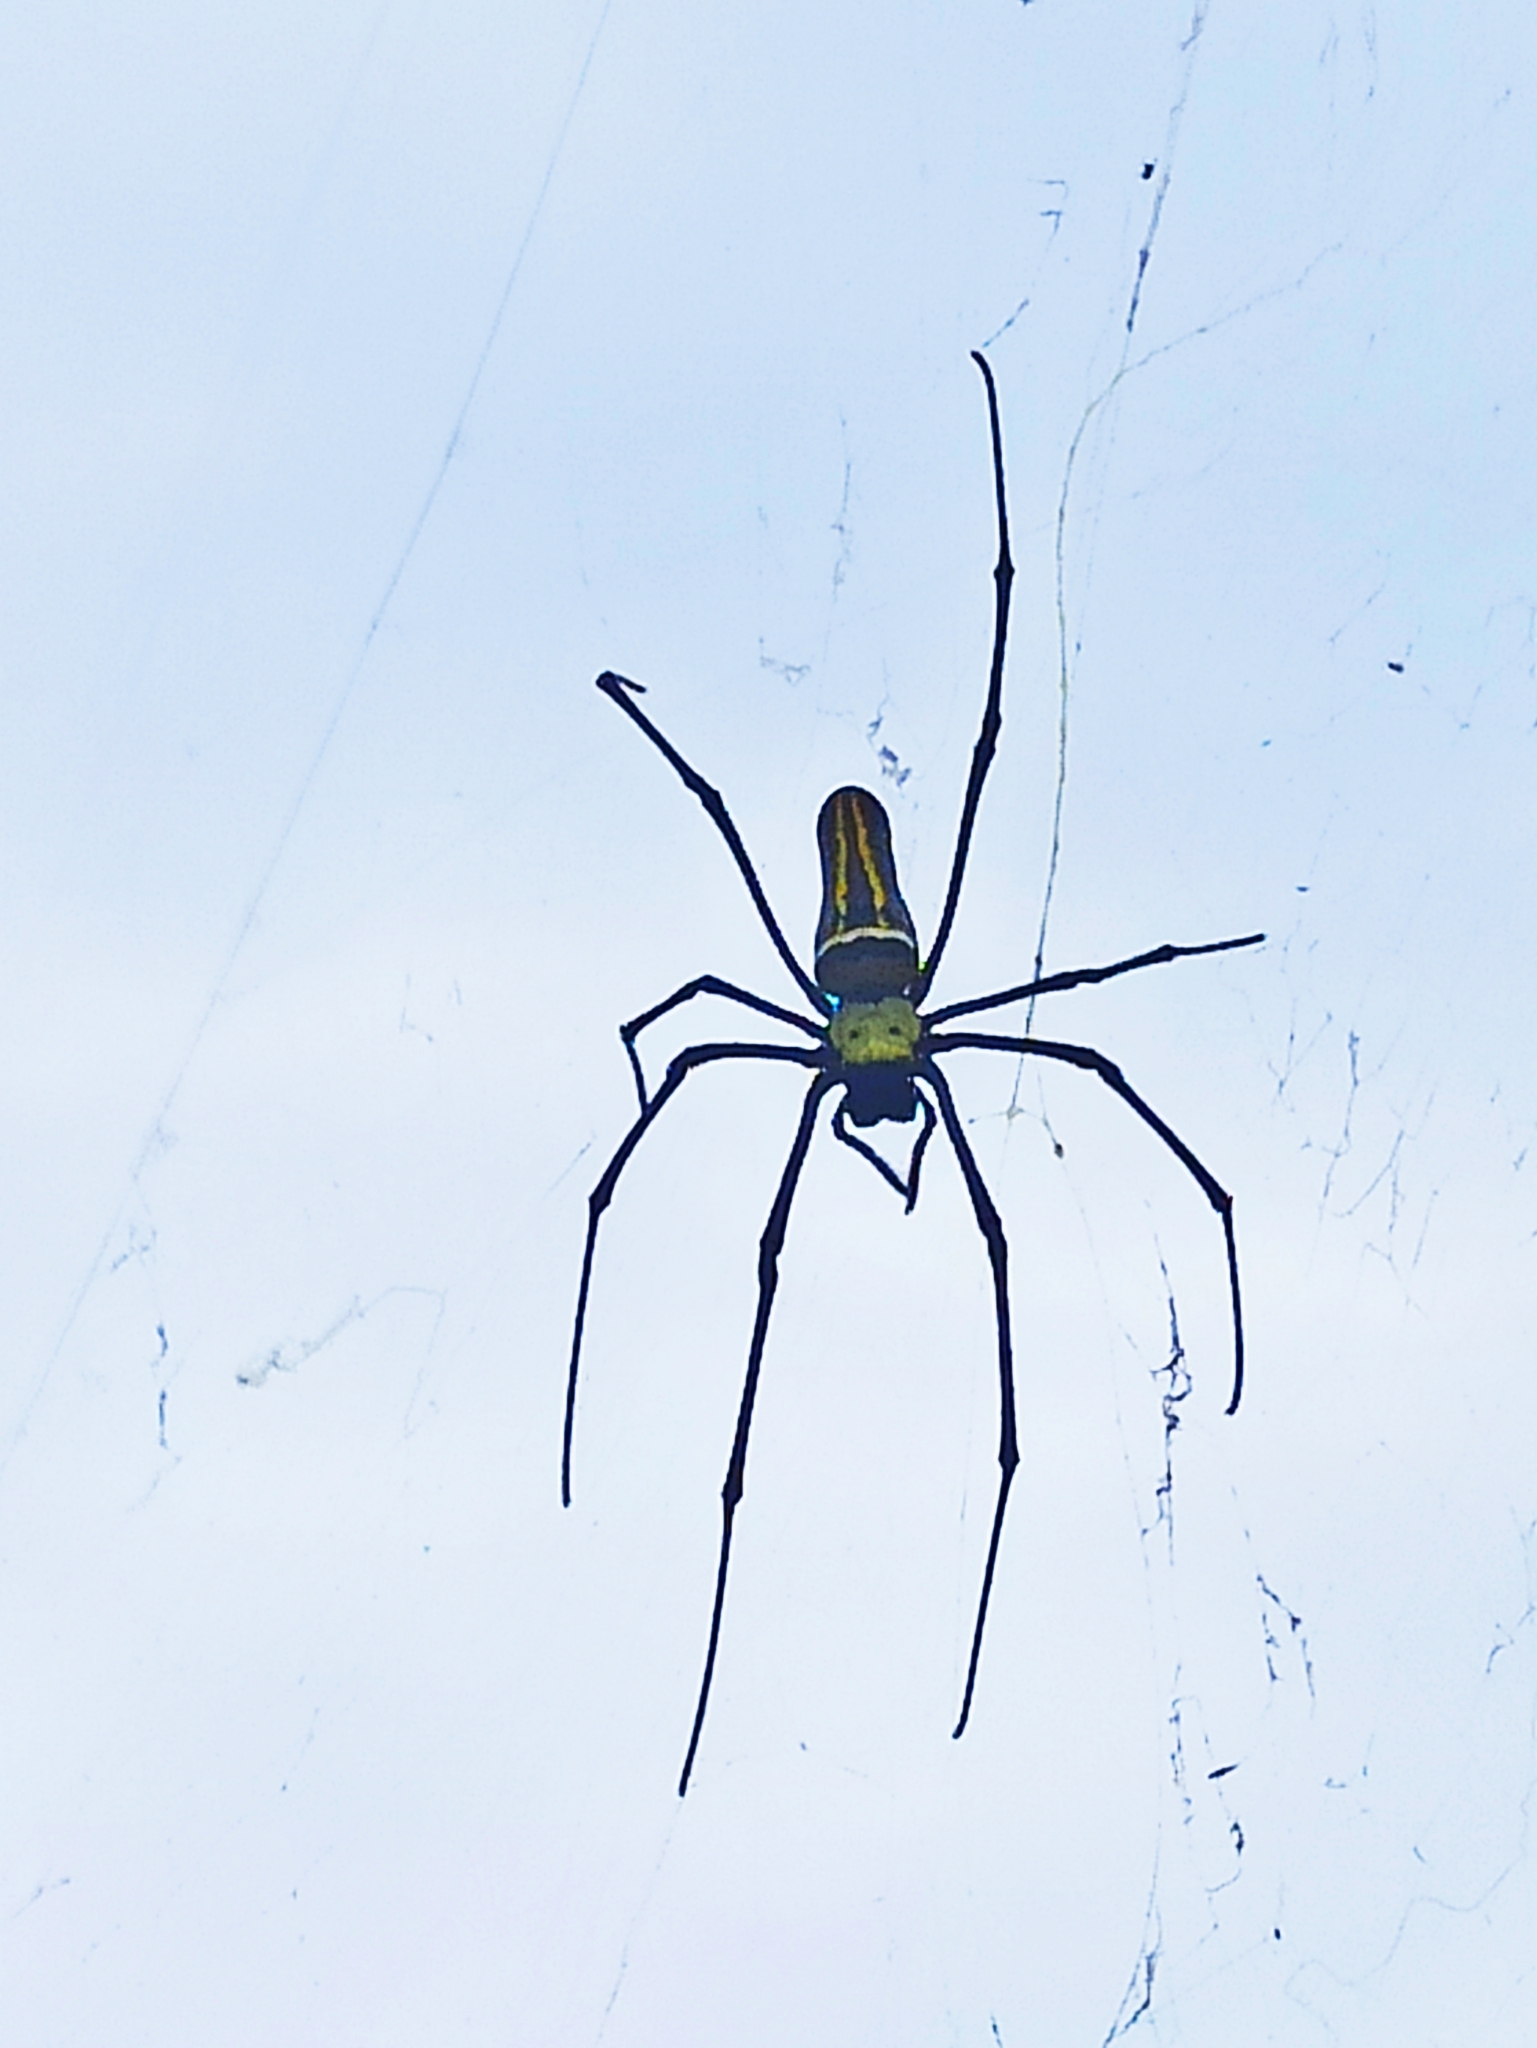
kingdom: Animalia
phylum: Arthropoda
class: Arachnida
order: Araneae
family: Araneidae
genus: Nephila
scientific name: Nephila pilipes
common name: Giant golden orb weaver
